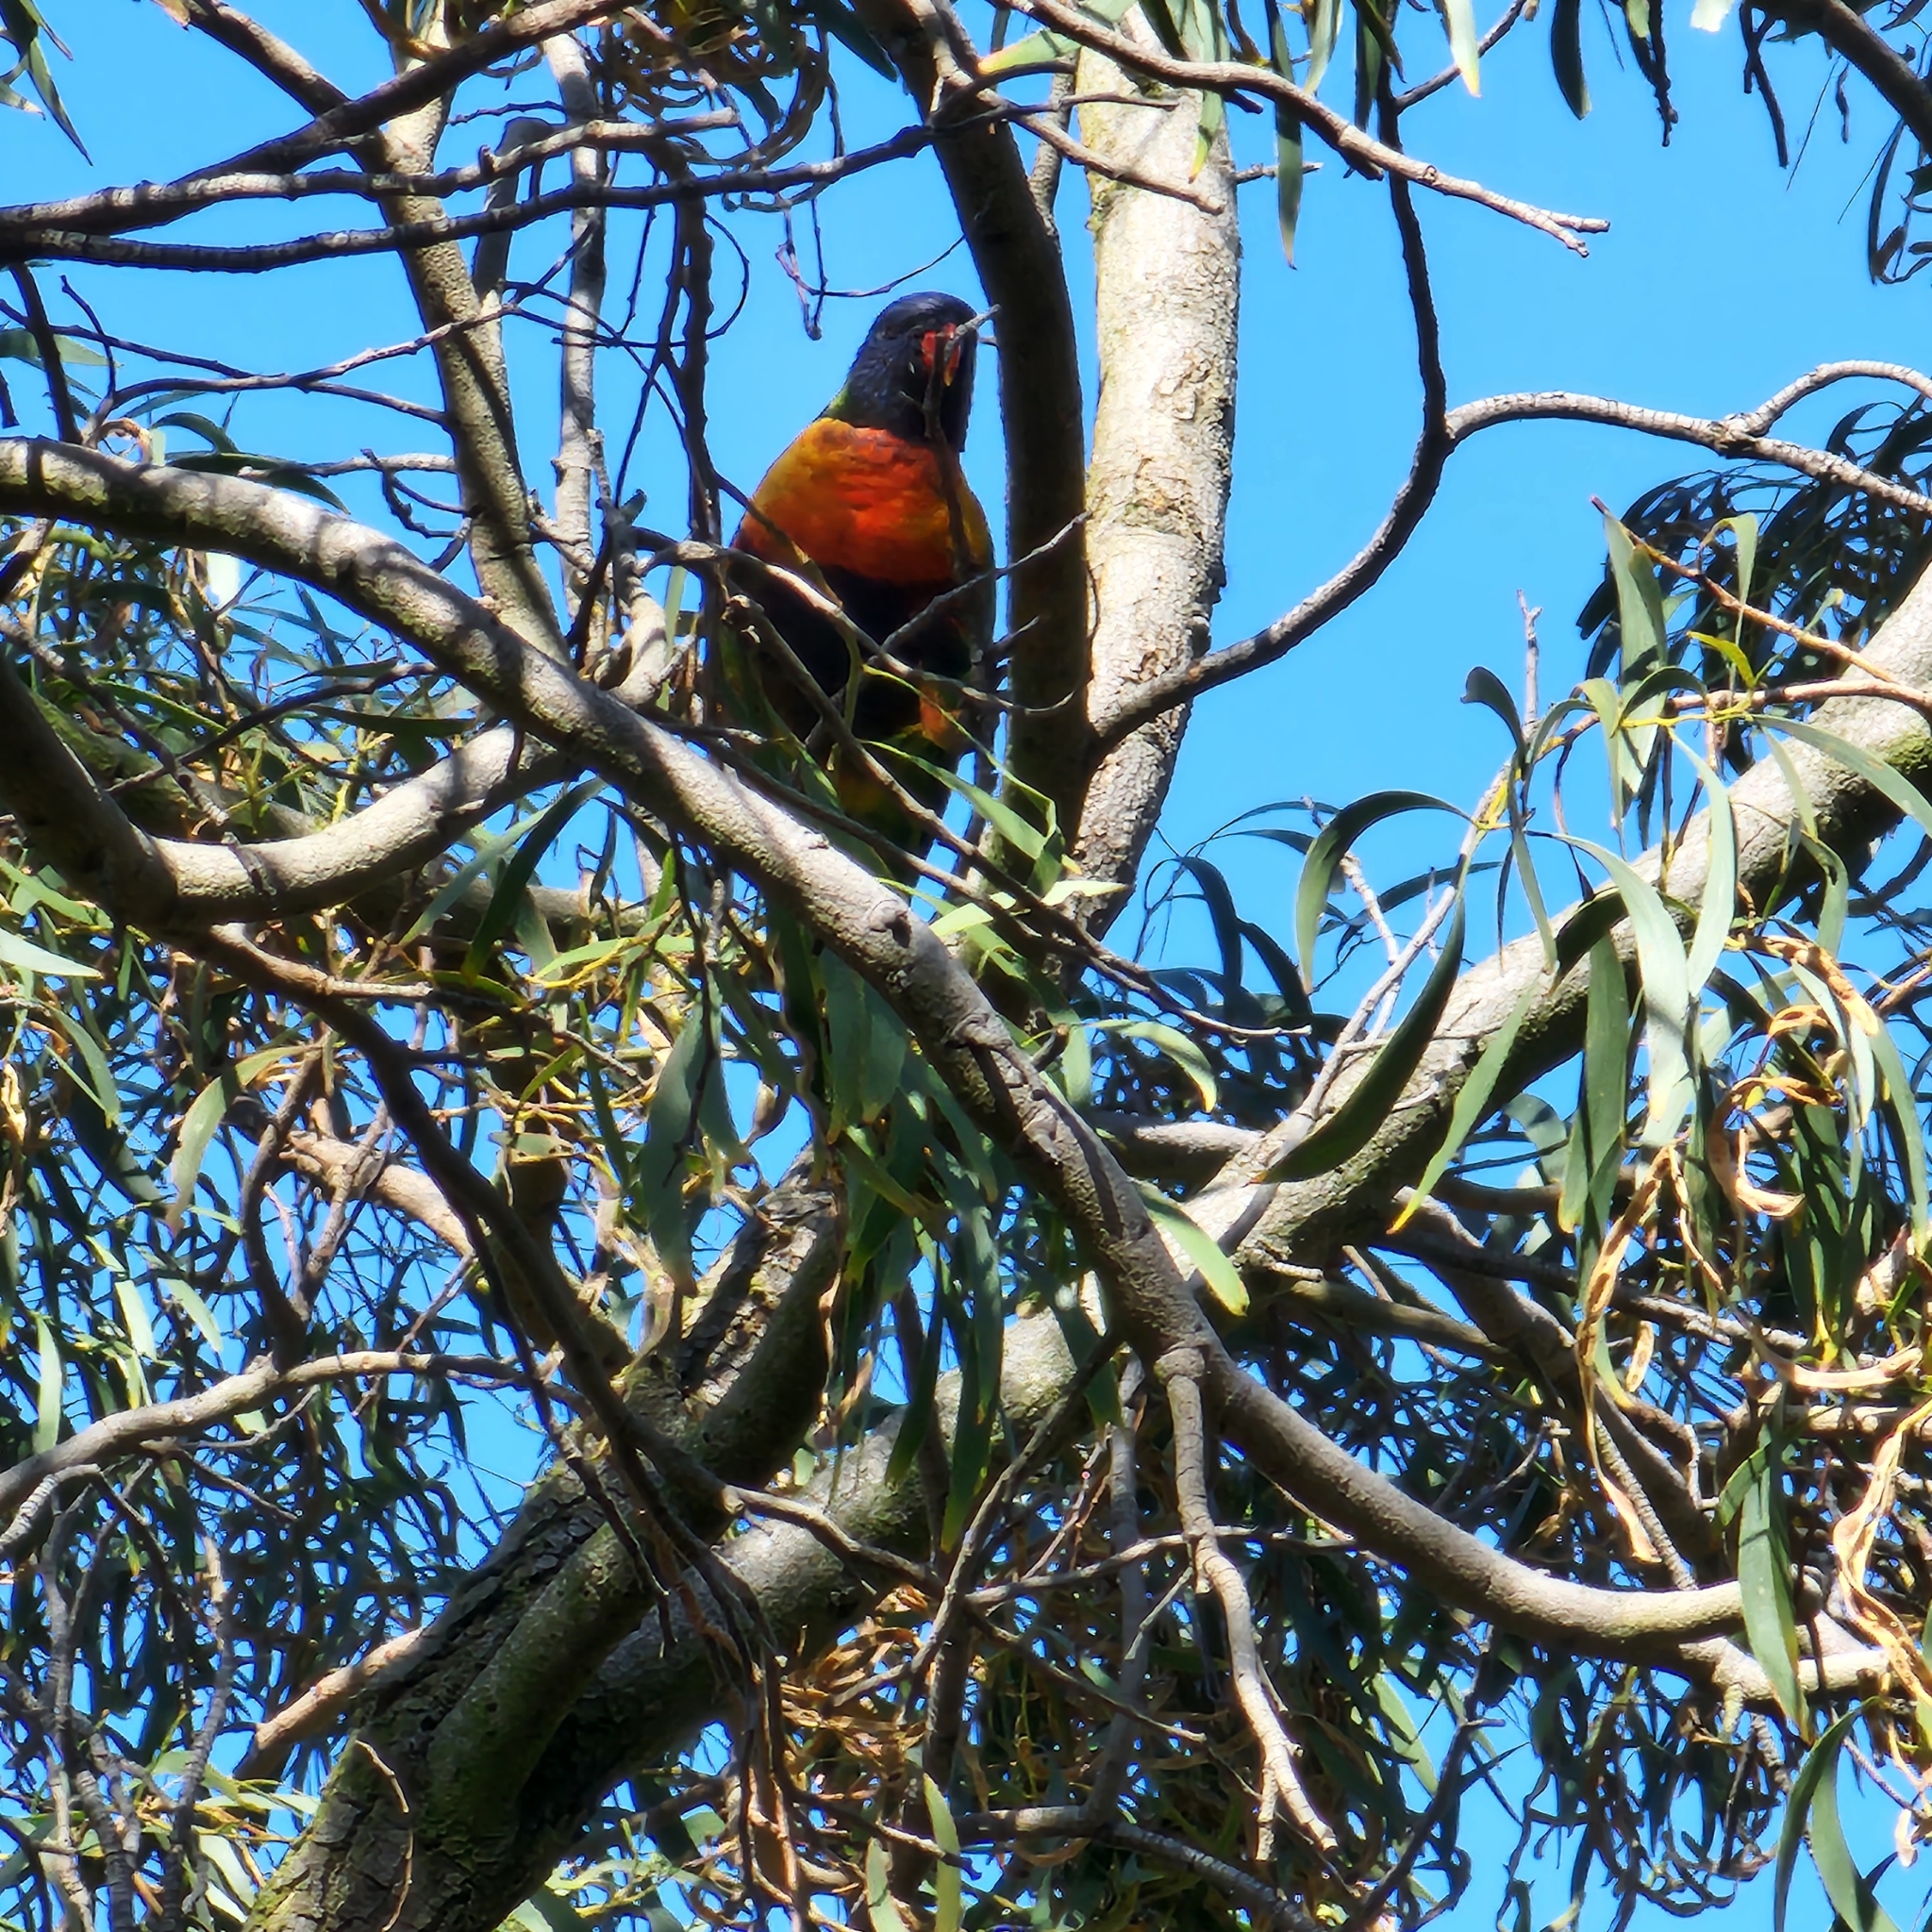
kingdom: Animalia
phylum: Chordata
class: Aves
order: Psittaciformes
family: Psittacidae
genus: Trichoglossus
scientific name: Trichoglossus haematodus
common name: Coconut lorikeet
